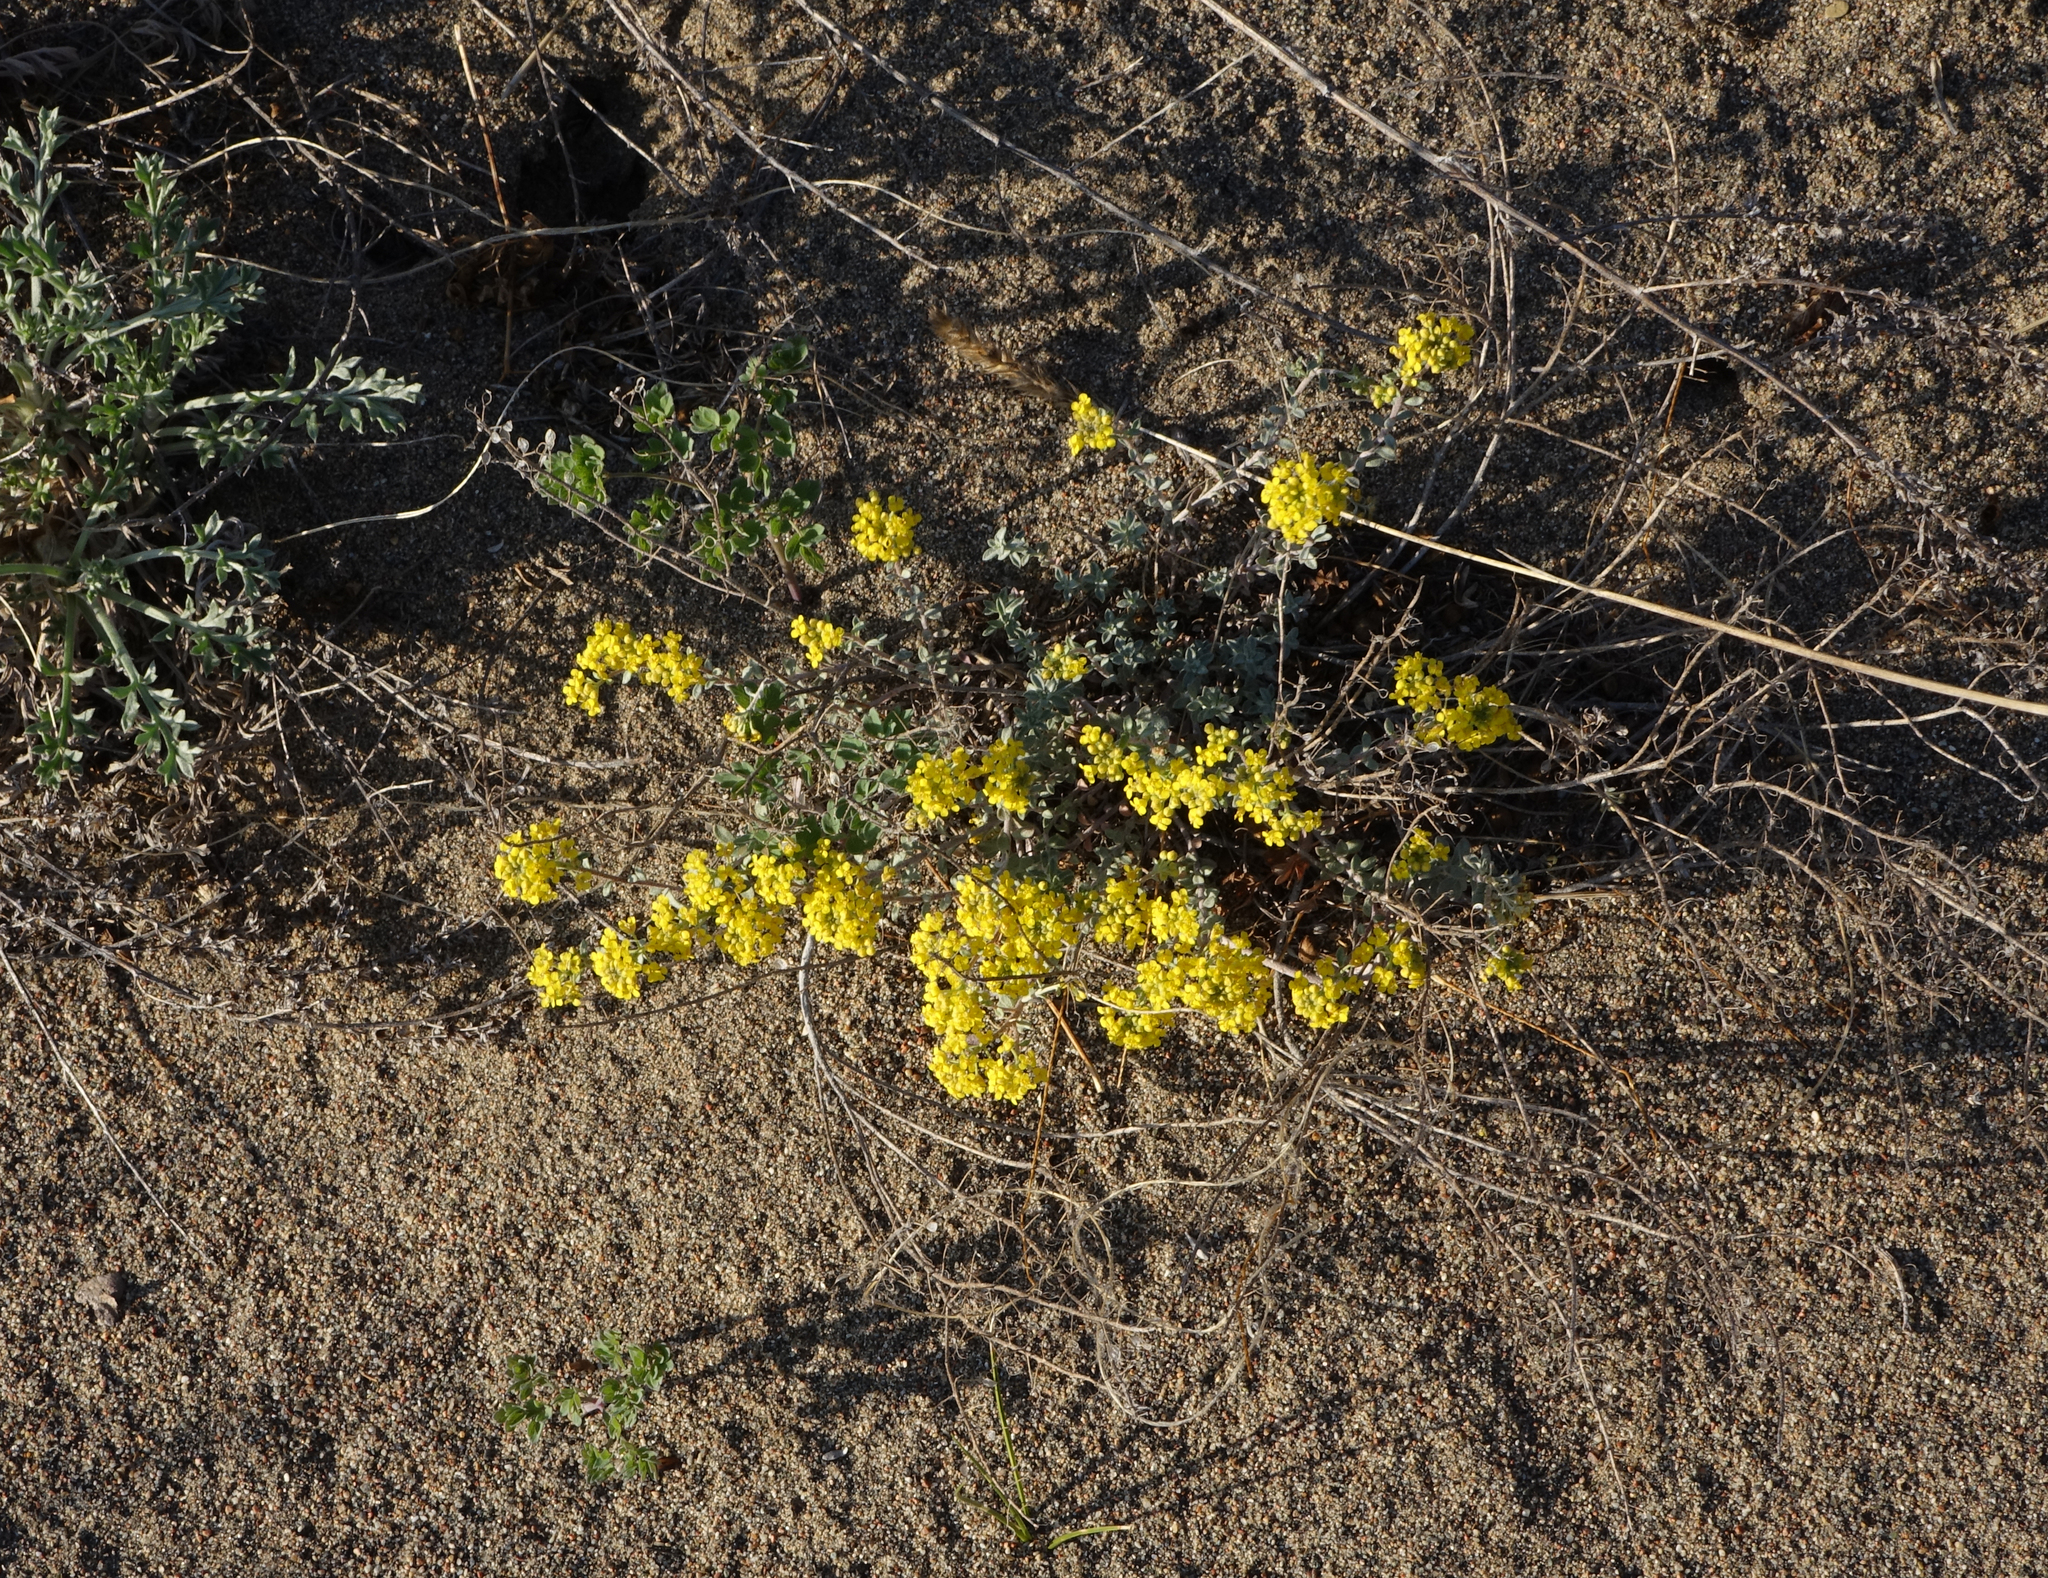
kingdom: Plantae
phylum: Tracheophyta
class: Magnoliopsida
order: Brassicales
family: Brassicaceae
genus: Odontarrhena
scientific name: Odontarrhena obovata
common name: American alyssum
